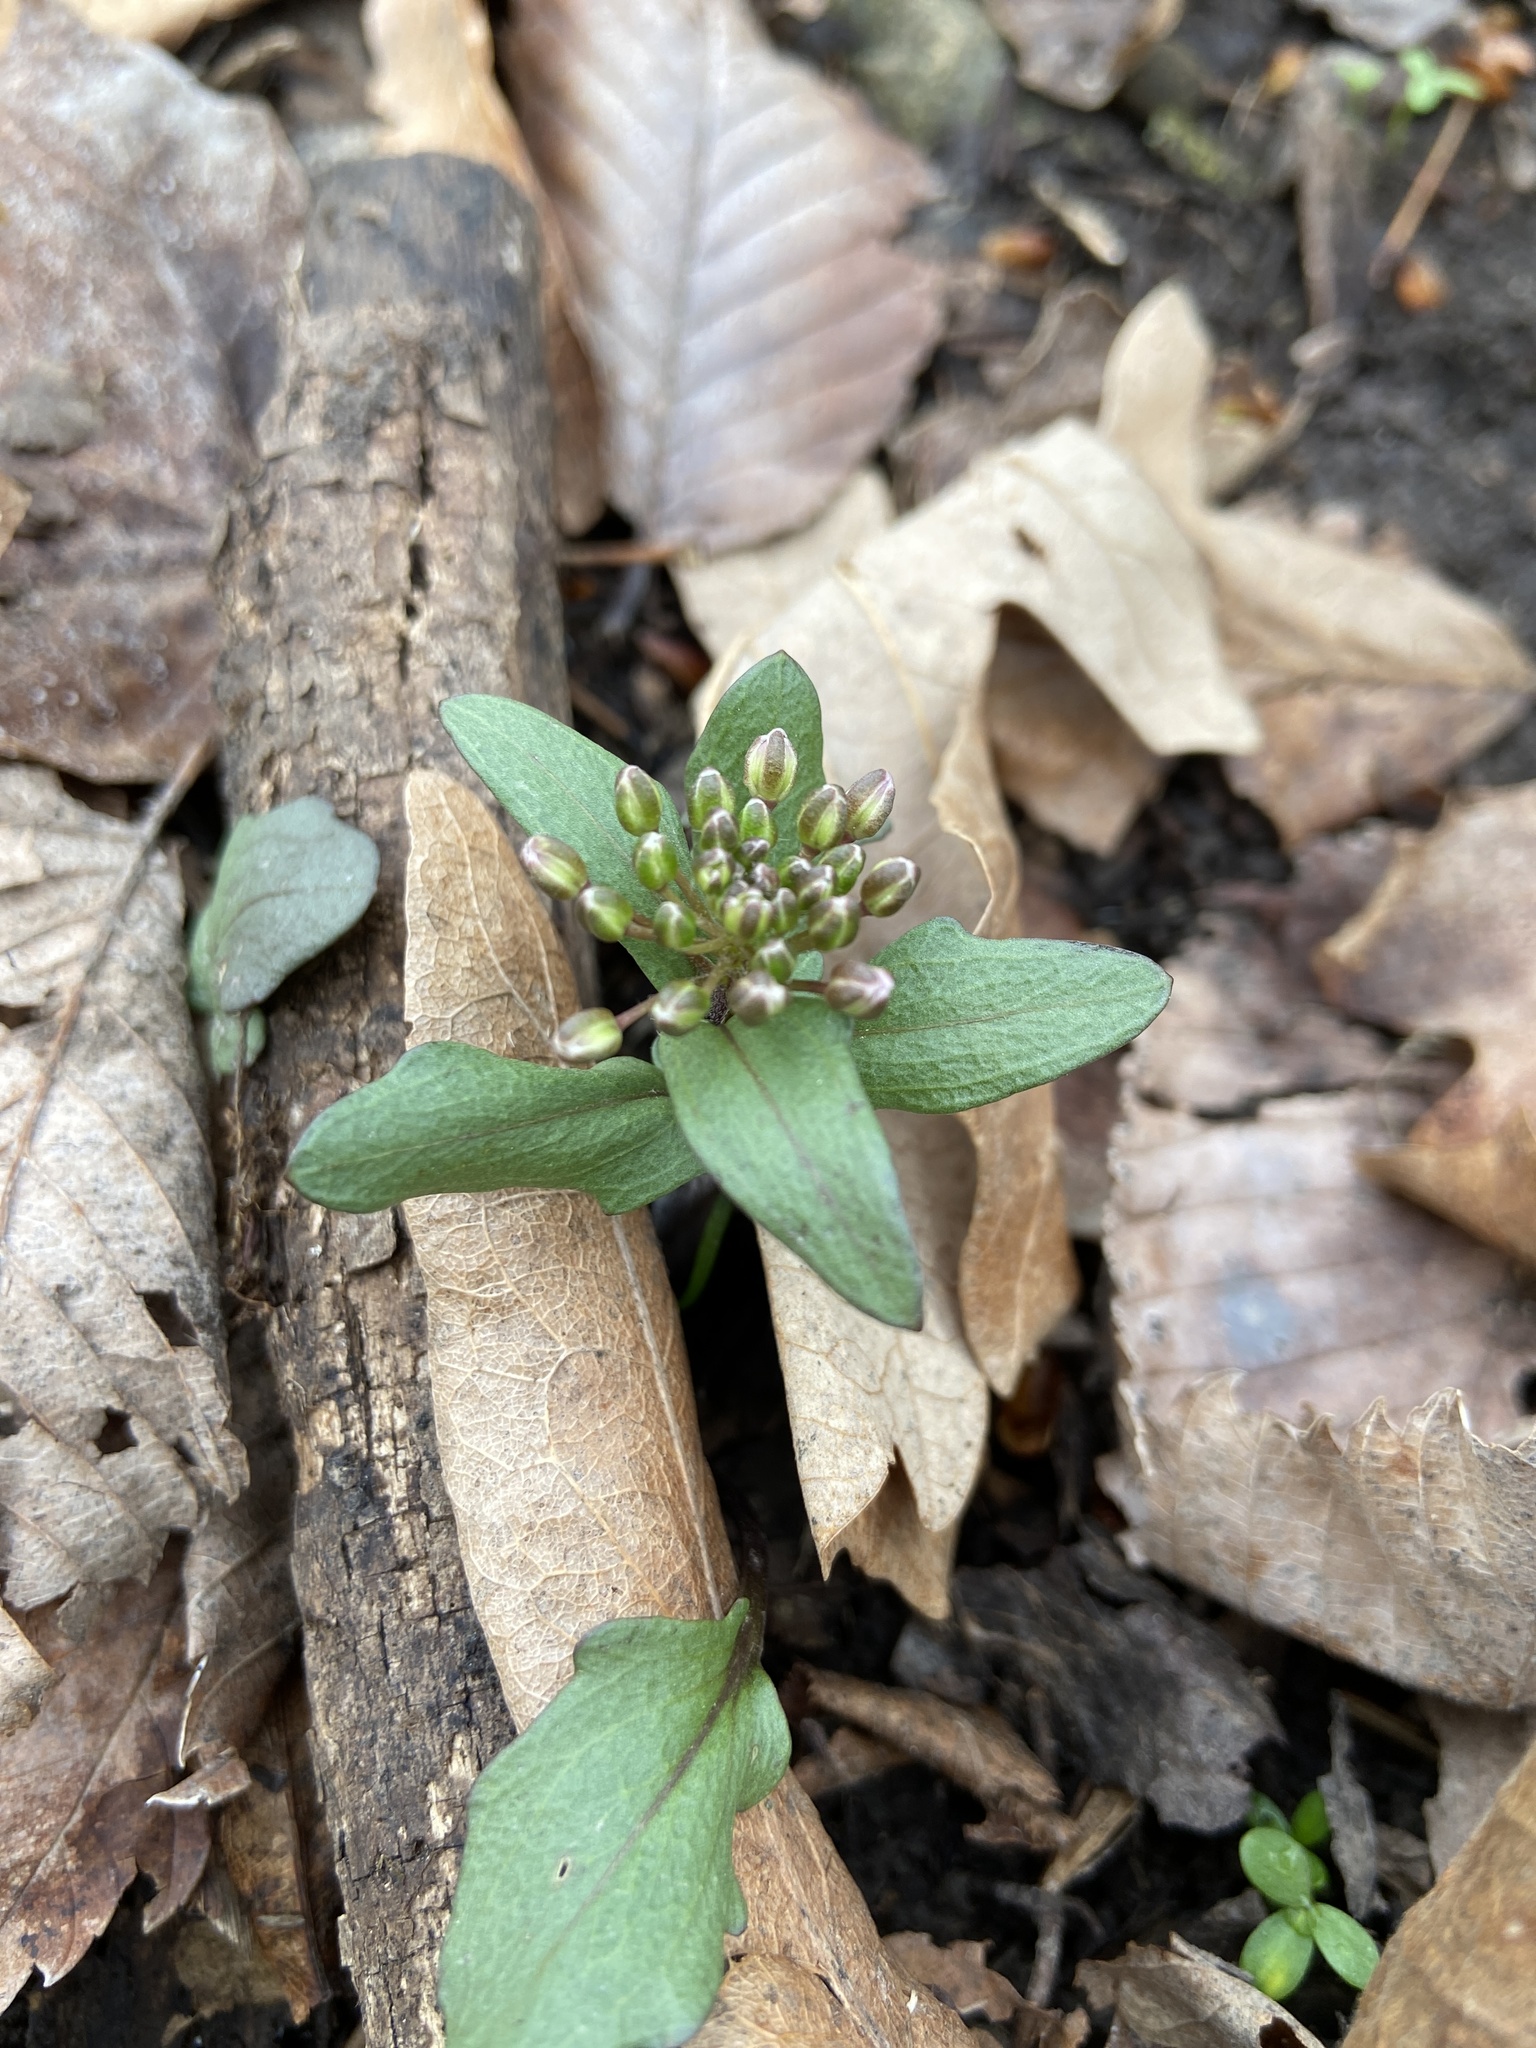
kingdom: Plantae
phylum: Tracheophyta
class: Magnoliopsida
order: Brassicales
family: Brassicaceae
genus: Cardamine
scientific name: Cardamine douglassii
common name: Purple cress
